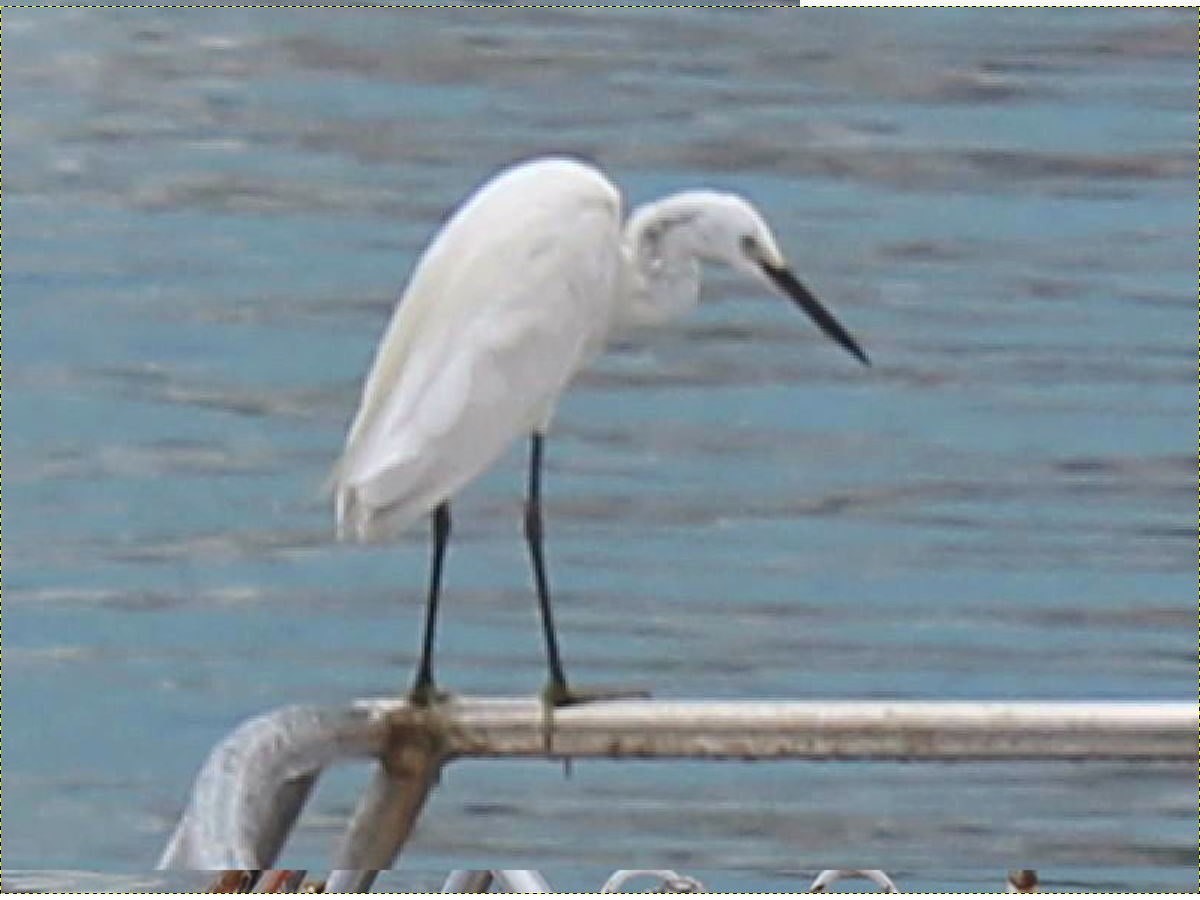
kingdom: Animalia
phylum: Chordata
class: Aves
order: Pelecaniformes
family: Ardeidae
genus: Egretta
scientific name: Egretta garzetta
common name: Little egret
